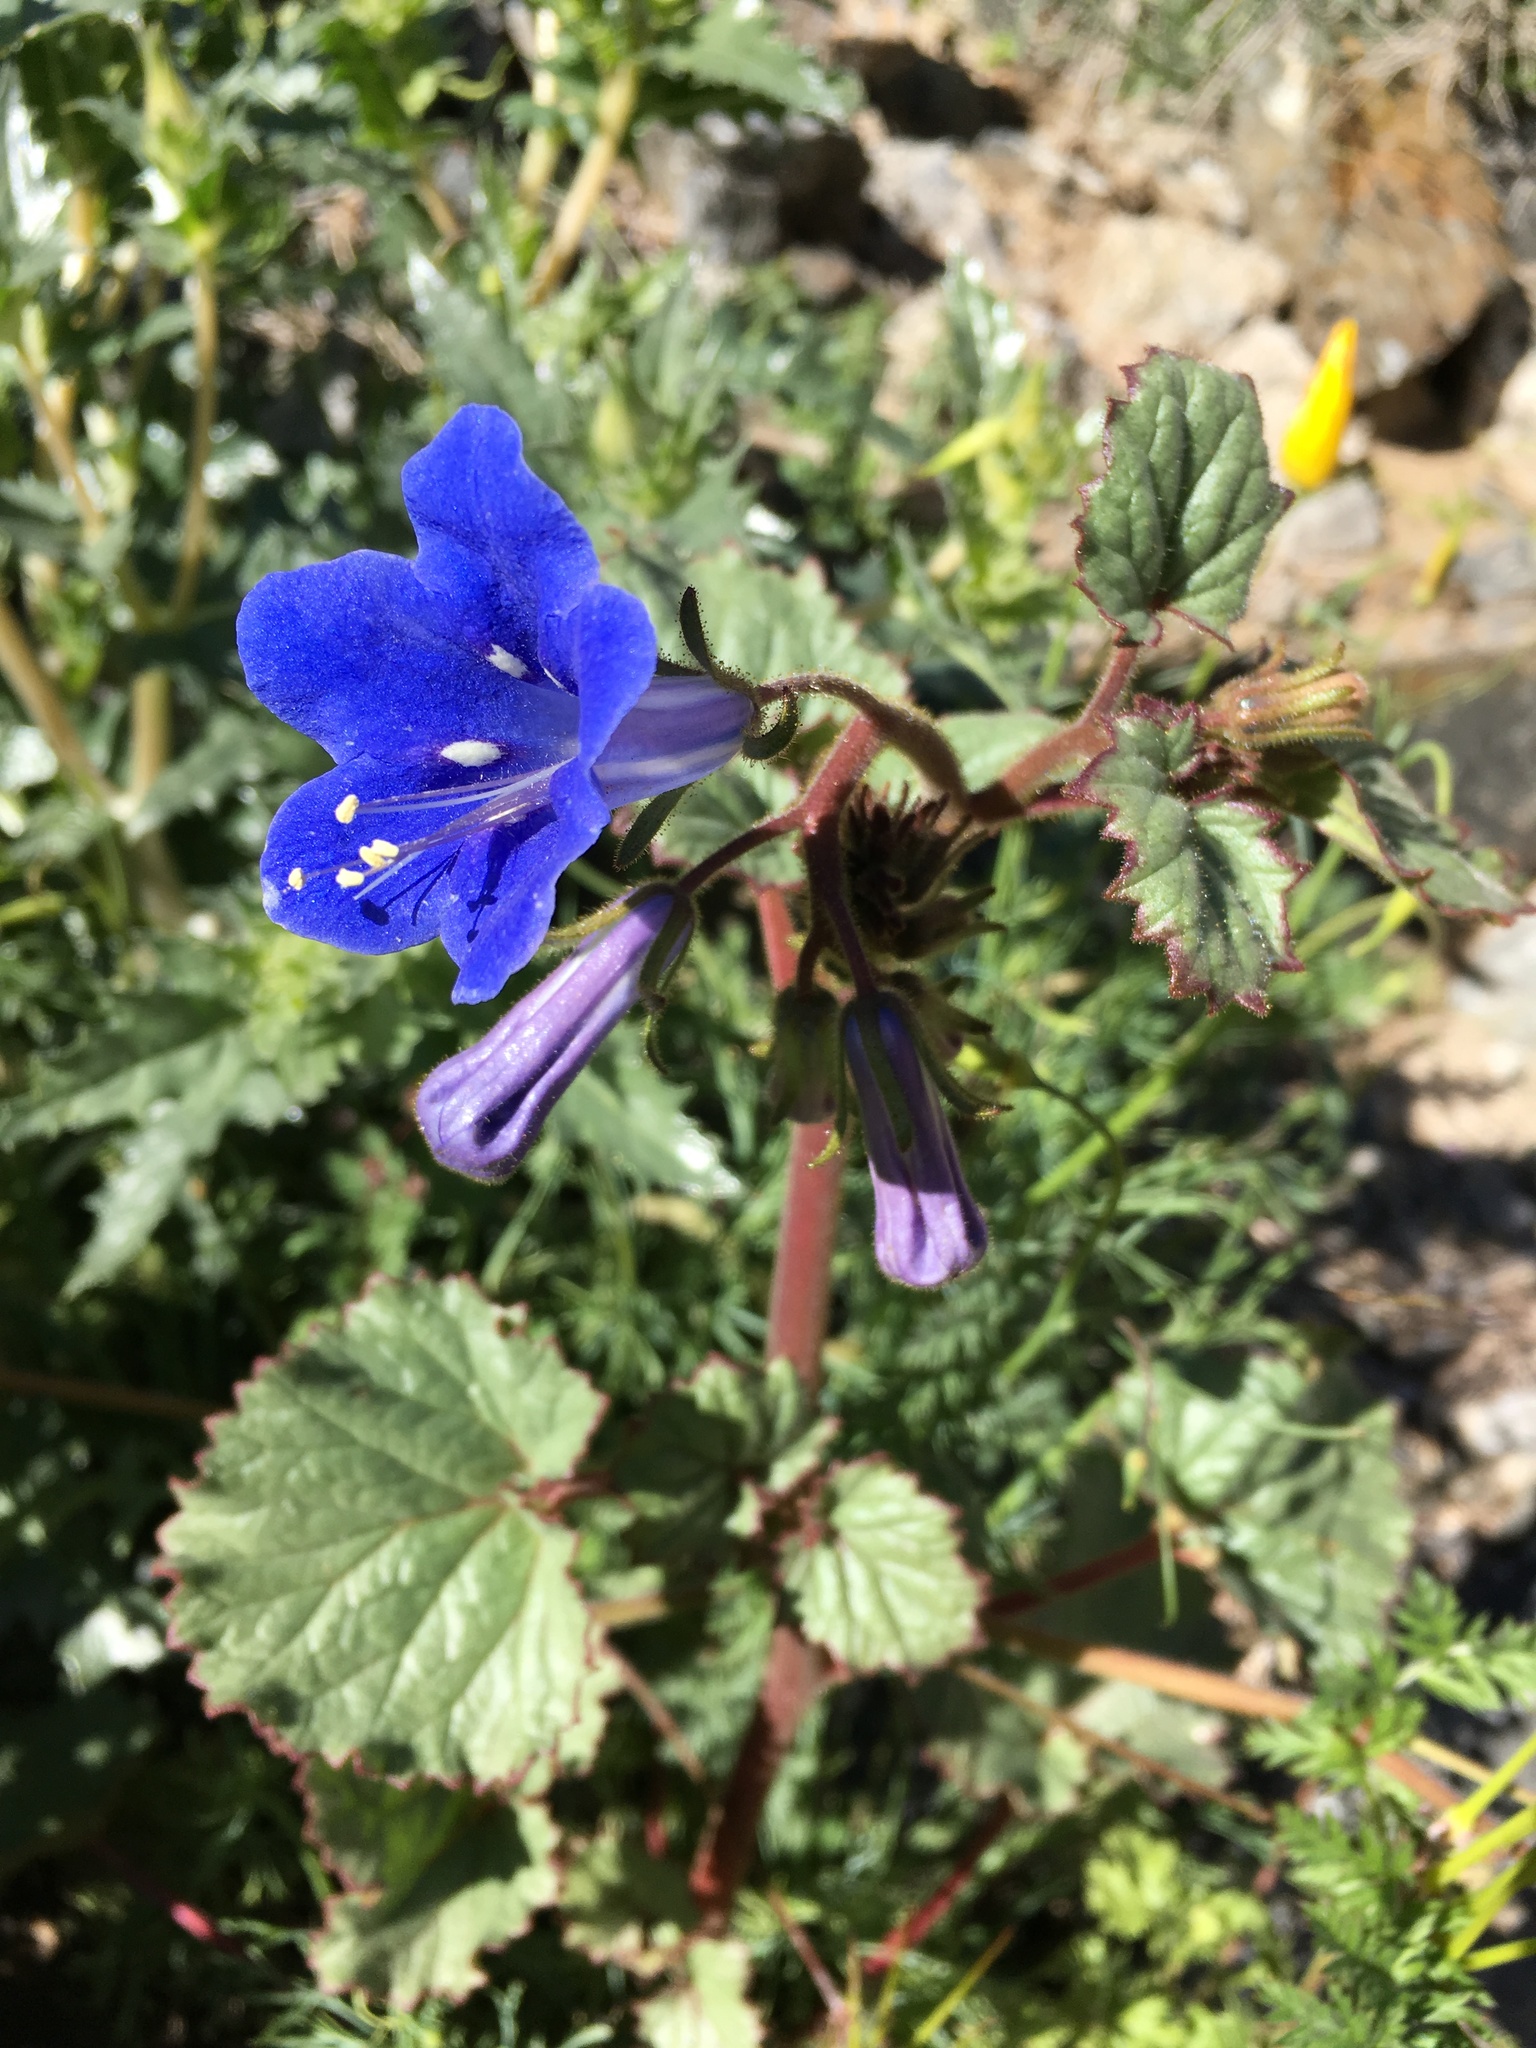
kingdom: Plantae
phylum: Tracheophyta
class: Magnoliopsida
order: Boraginales
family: Hydrophyllaceae
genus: Phacelia
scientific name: Phacelia campanularia
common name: California bluebell
